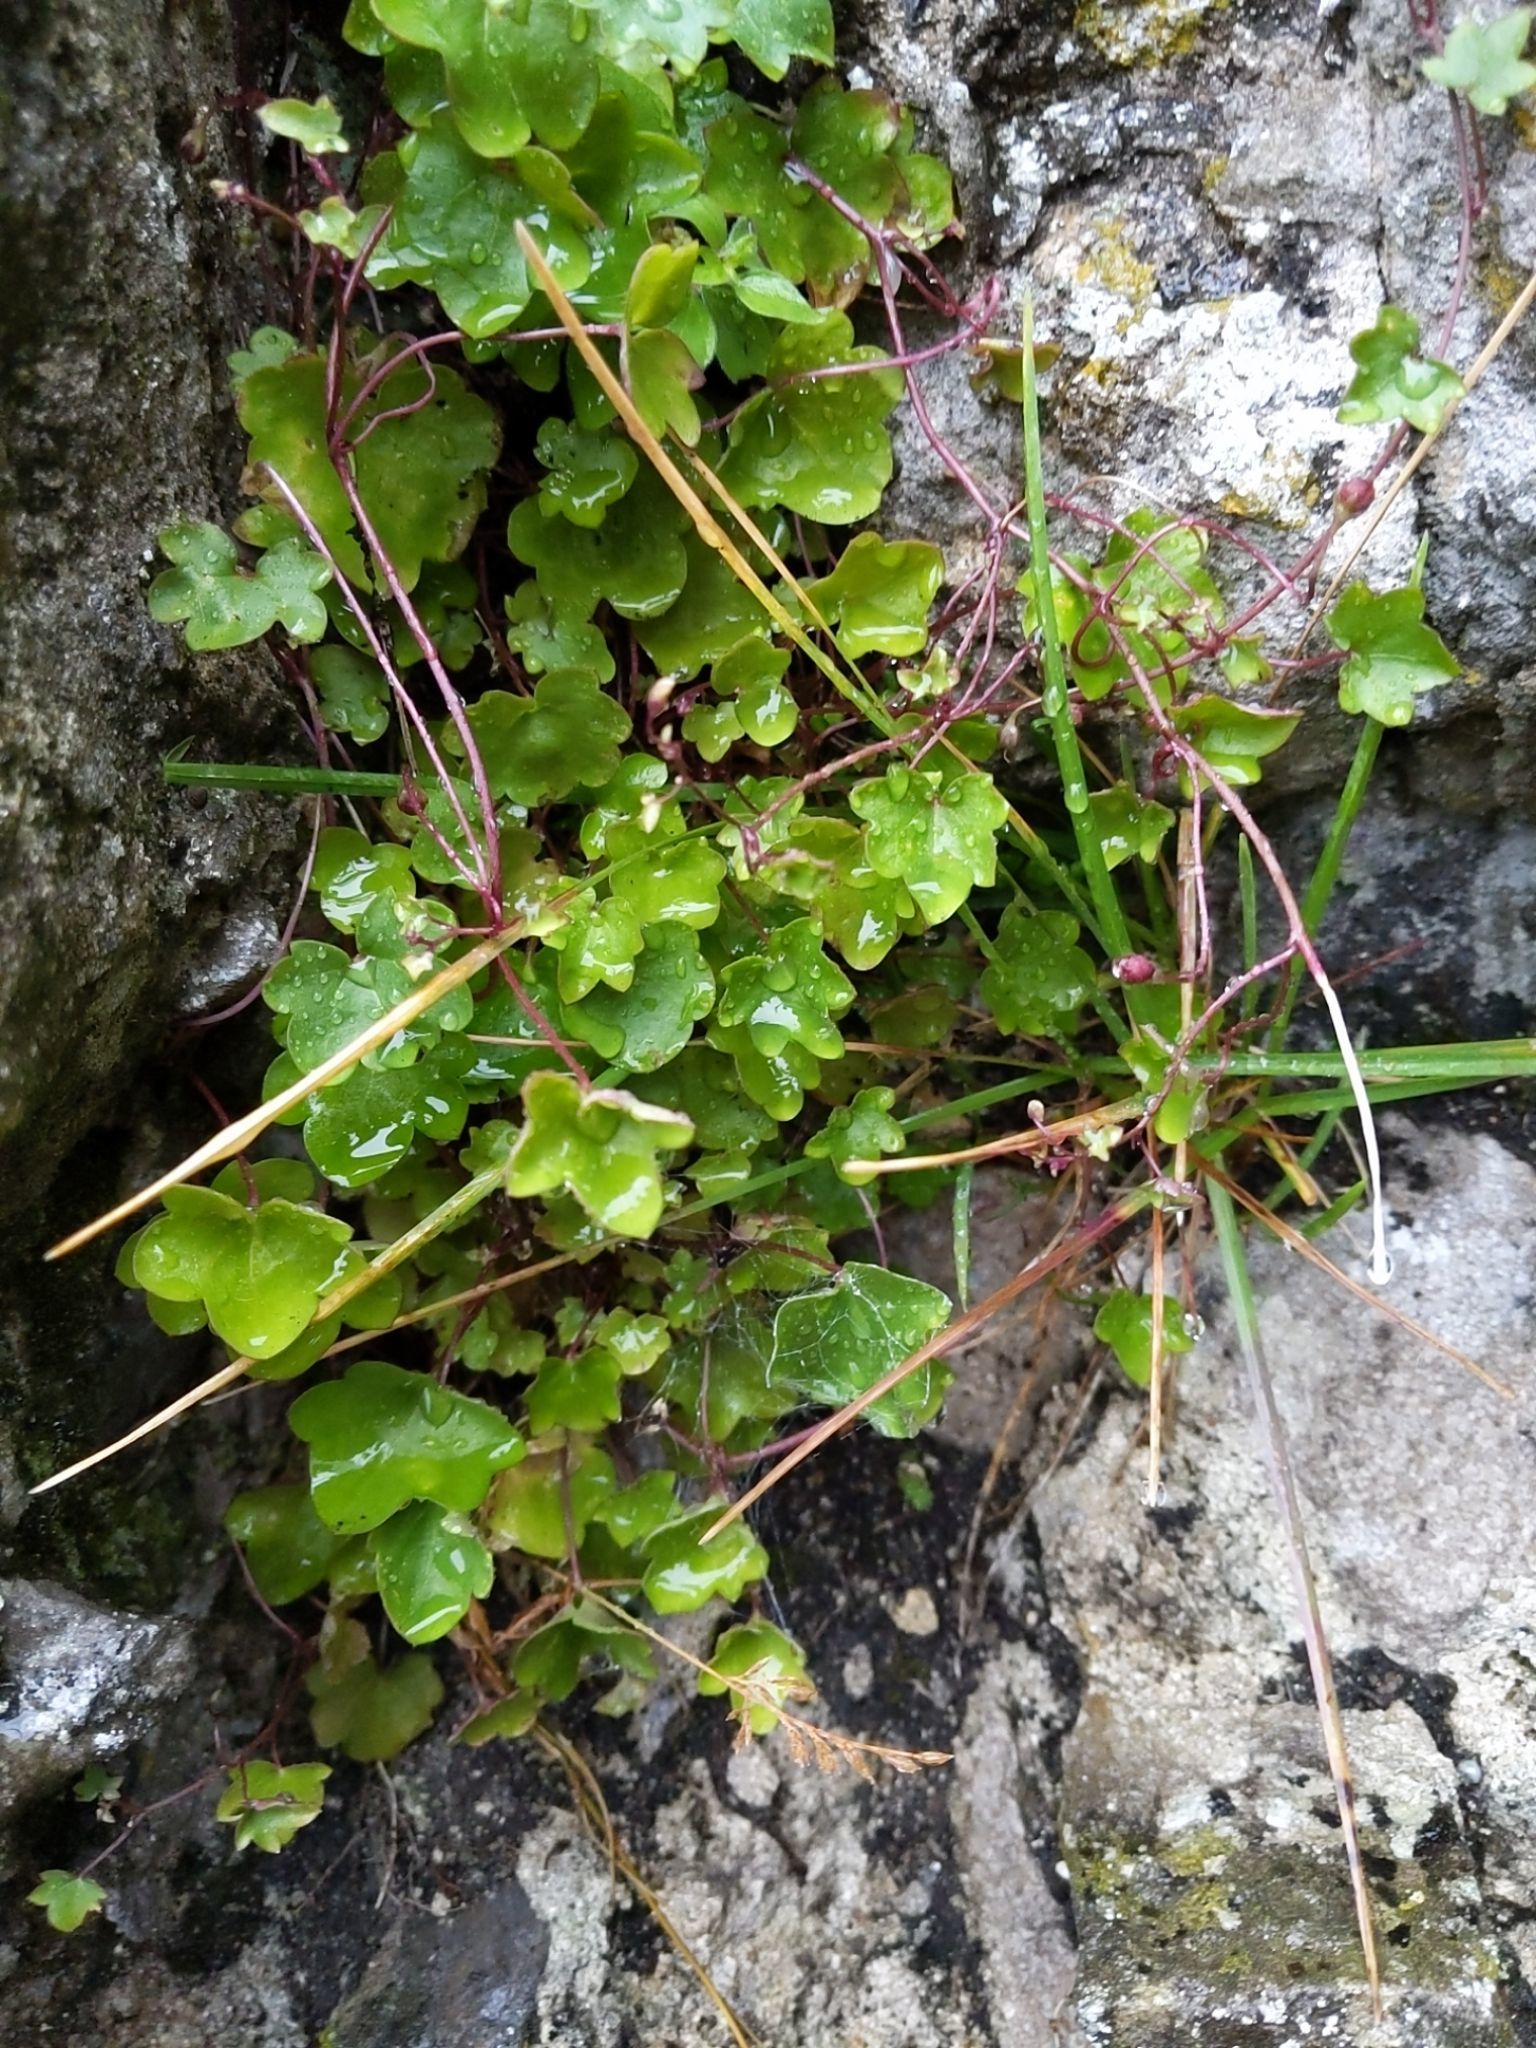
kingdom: Plantae
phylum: Tracheophyta
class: Magnoliopsida
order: Lamiales
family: Plantaginaceae
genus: Cymbalaria
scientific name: Cymbalaria muralis
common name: Ivy-leaved toadflax
